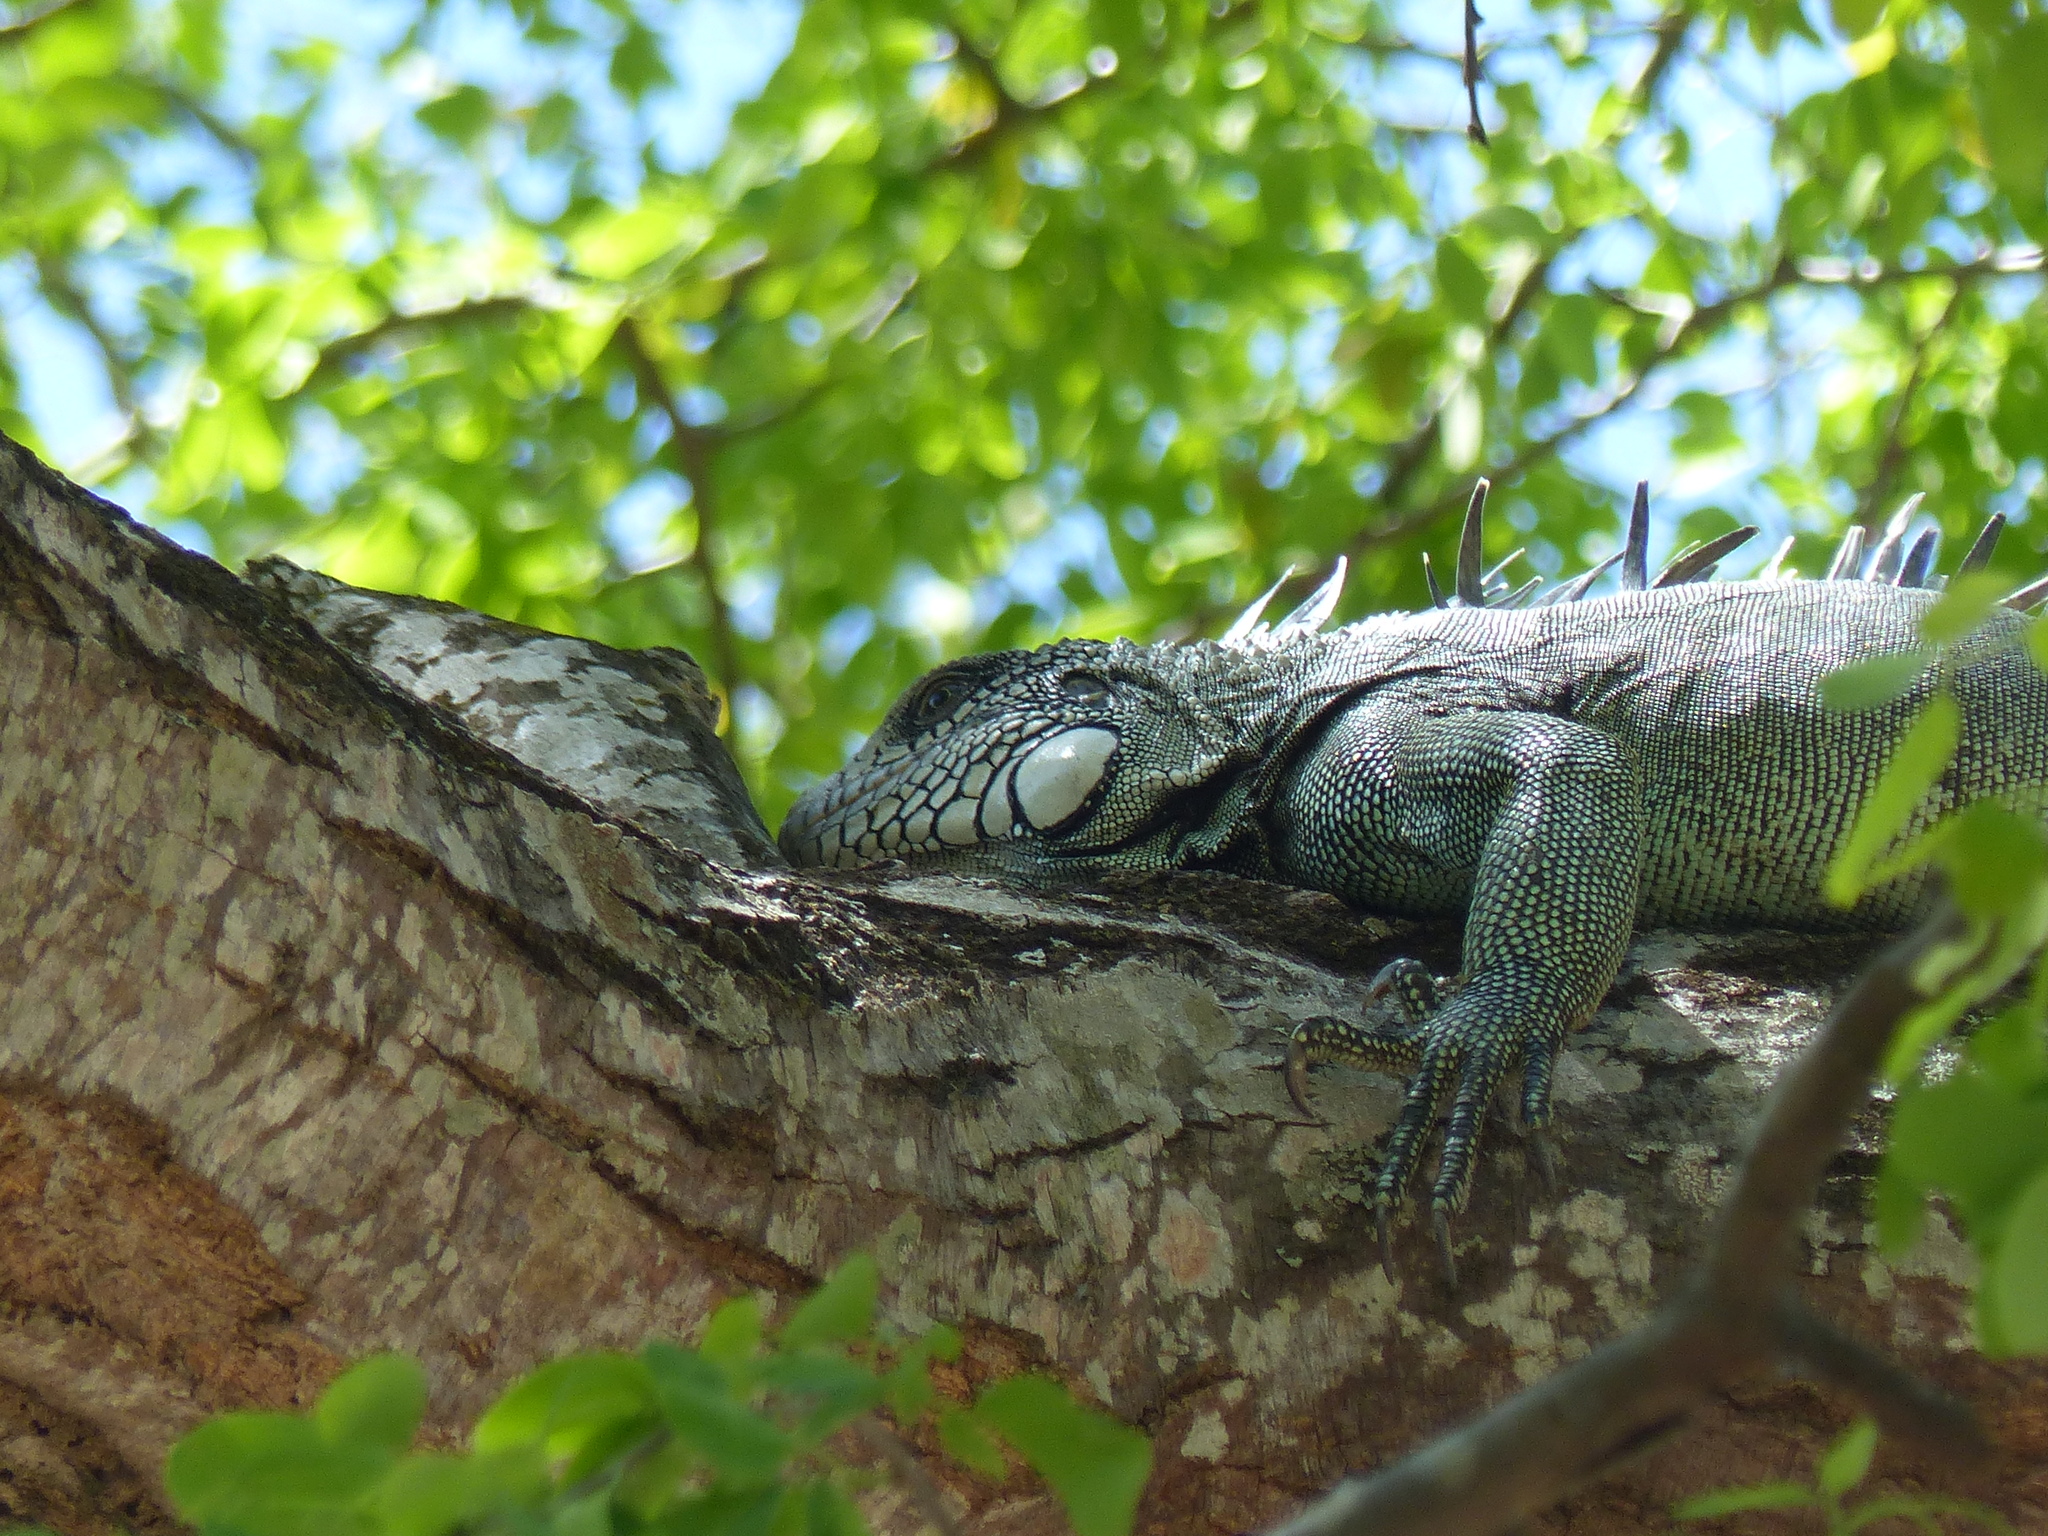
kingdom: Animalia
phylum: Chordata
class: Squamata
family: Iguanidae
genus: Iguana
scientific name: Iguana iguana
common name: Green iguana
